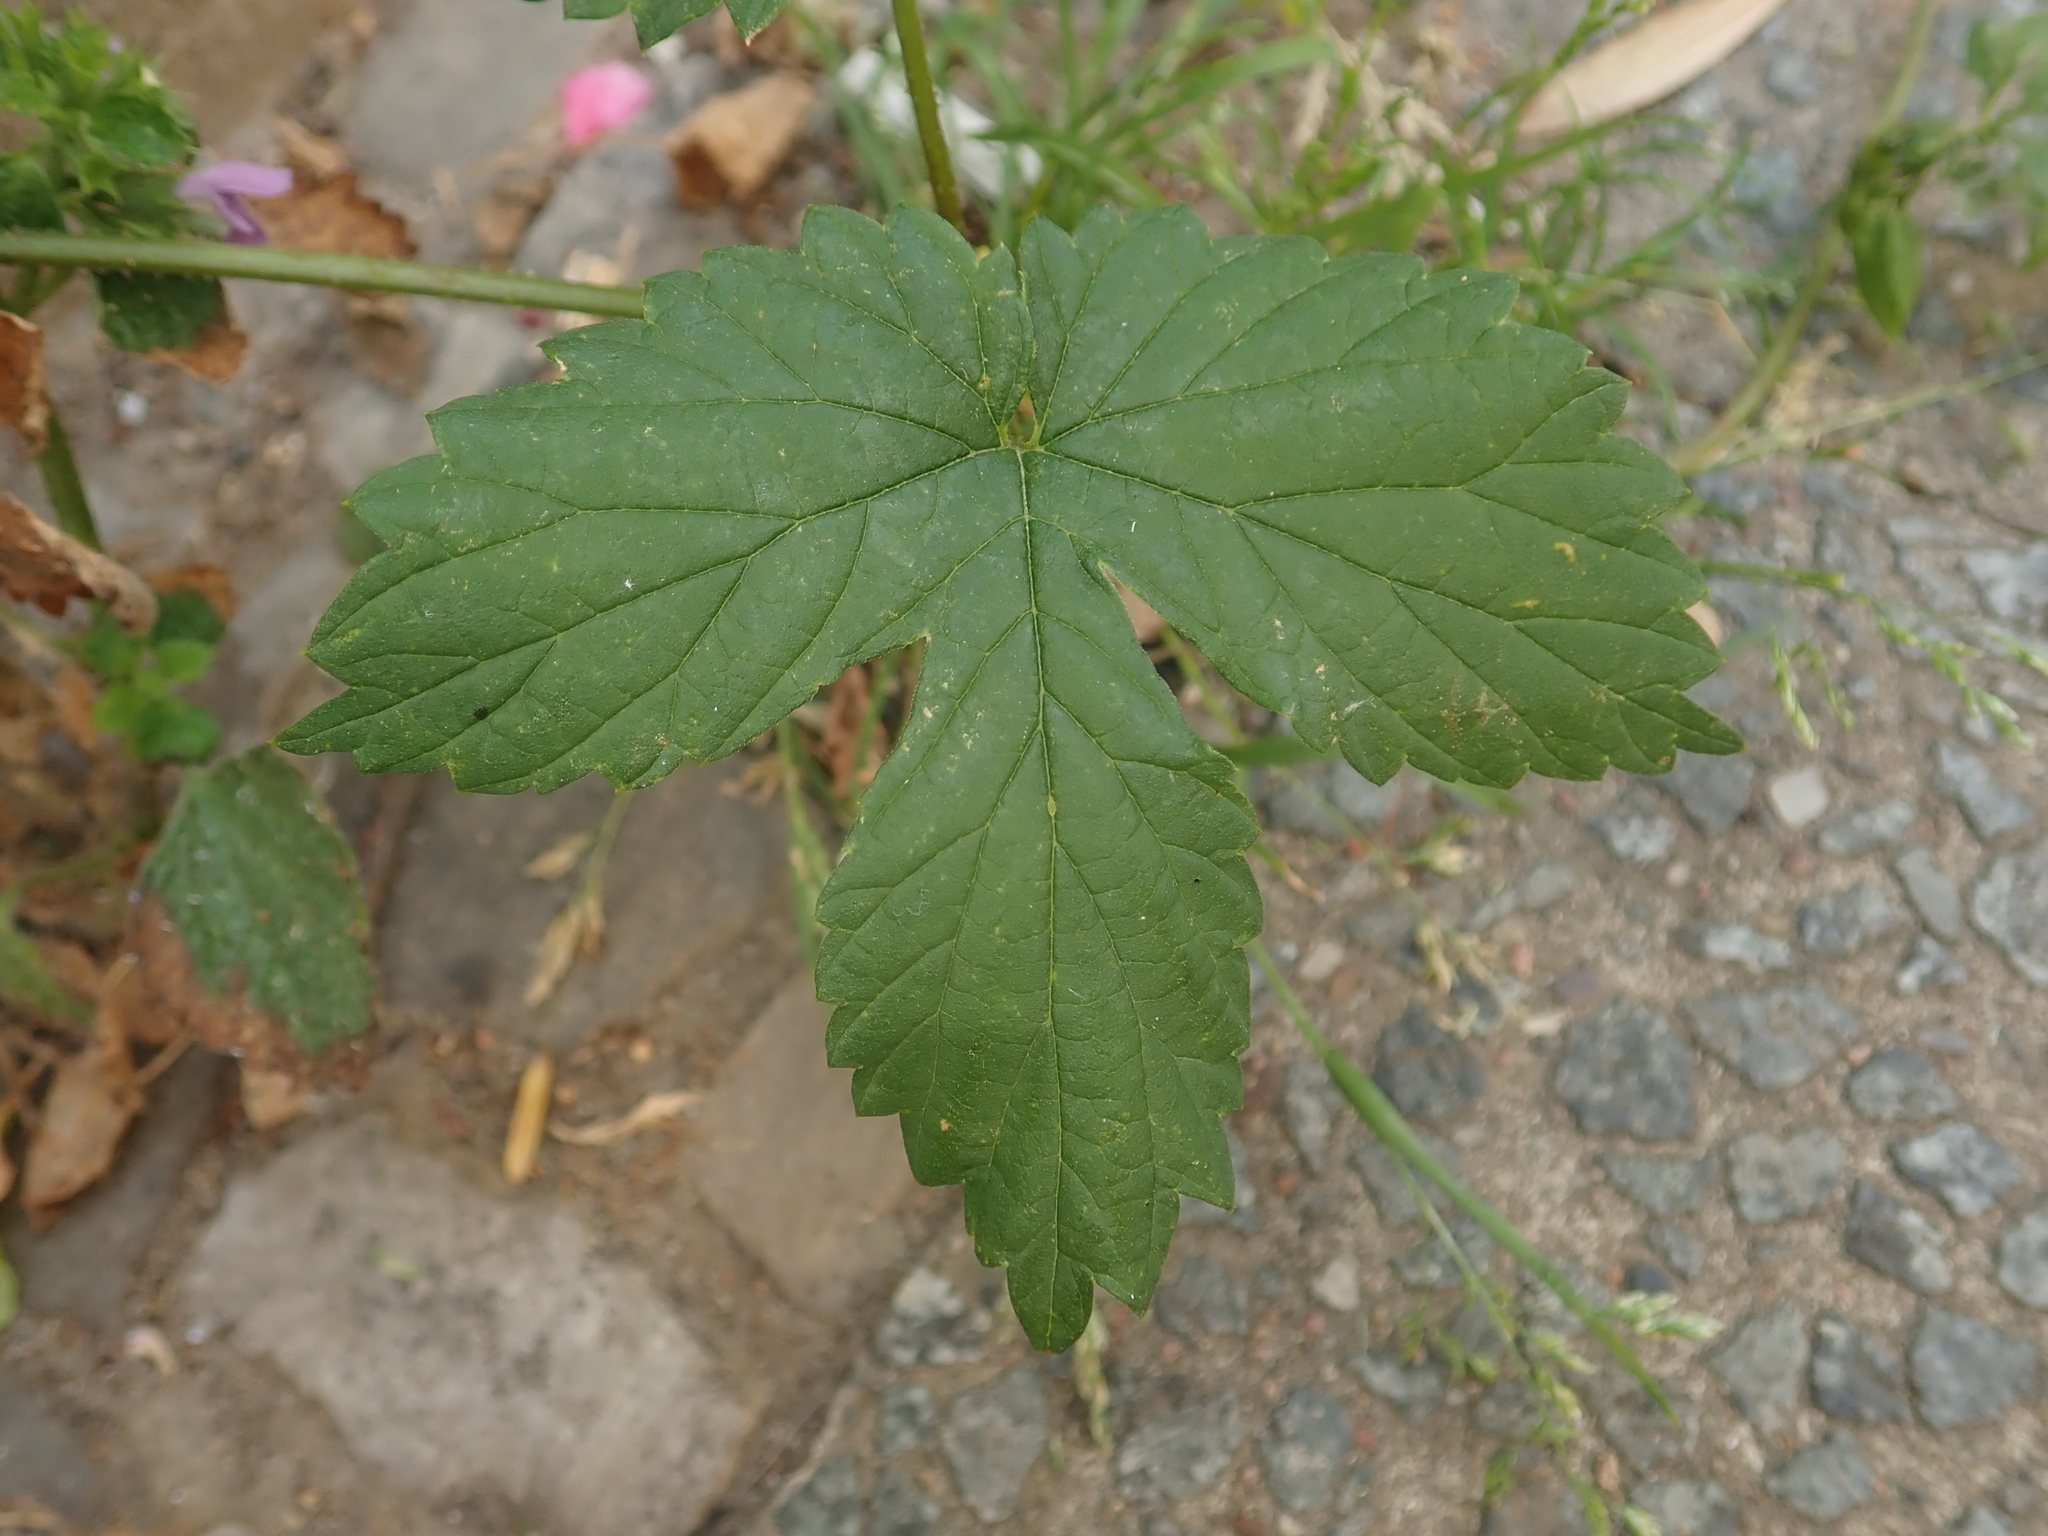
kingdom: Plantae
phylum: Tracheophyta
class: Magnoliopsida
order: Rosales
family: Cannabaceae
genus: Humulus
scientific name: Humulus lupulus
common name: Hop
